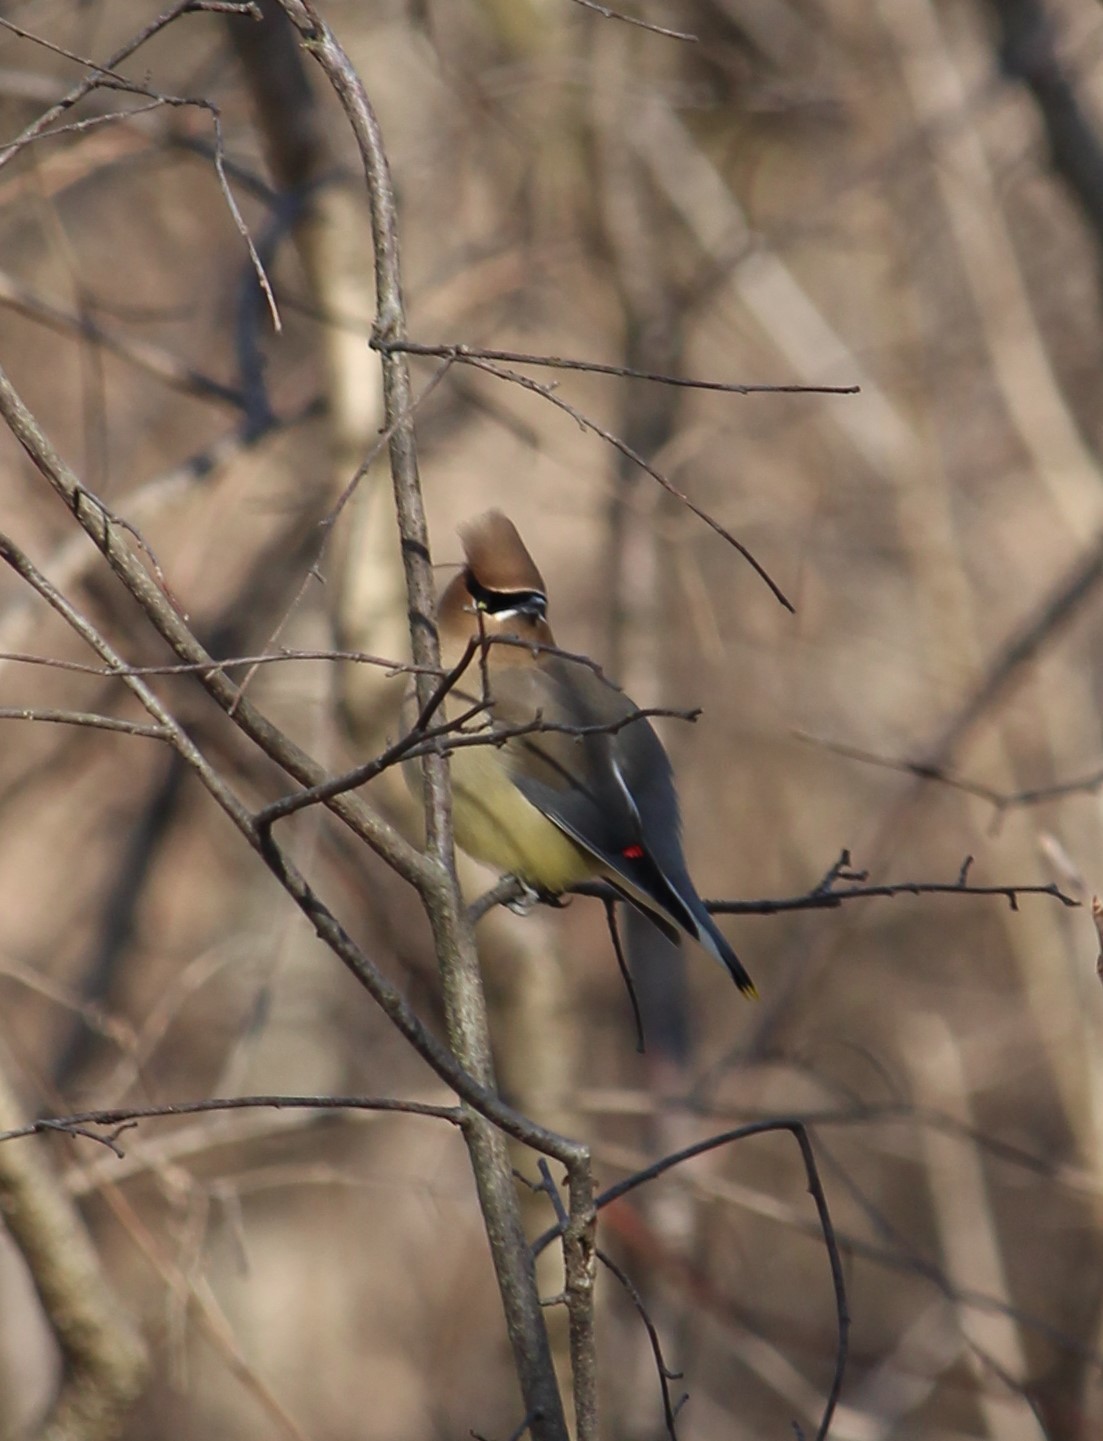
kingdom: Animalia
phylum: Chordata
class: Aves
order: Passeriformes
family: Bombycillidae
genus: Bombycilla
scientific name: Bombycilla cedrorum
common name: Cedar waxwing
